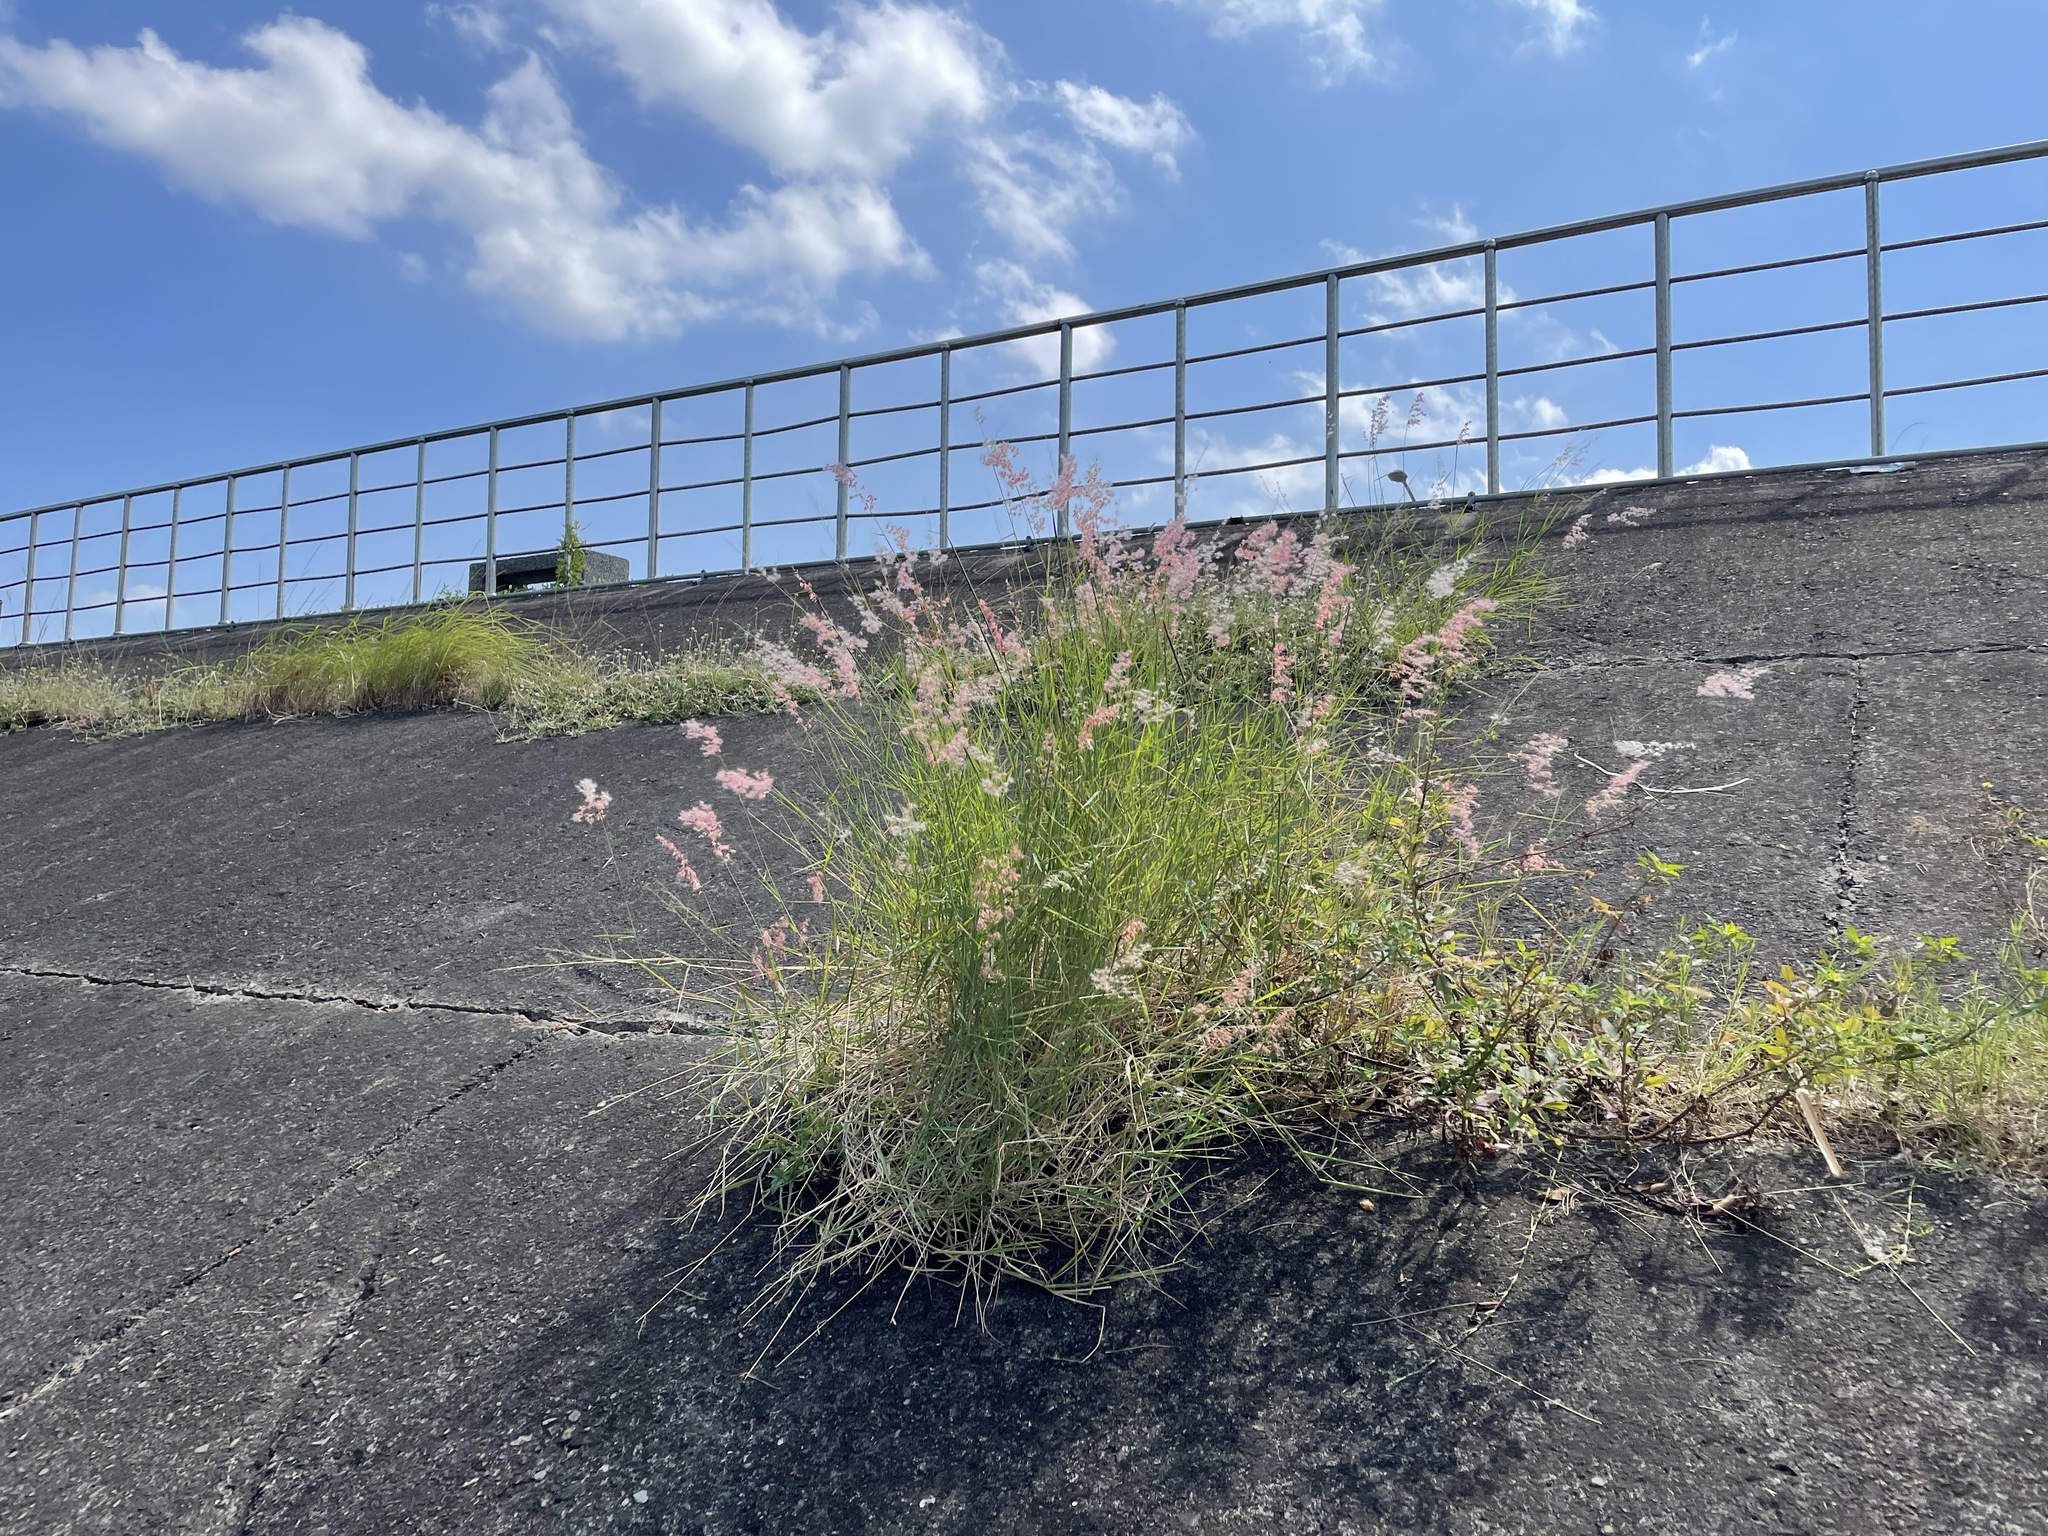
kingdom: Plantae
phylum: Tracheophyta
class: Liliopsida
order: Poales
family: Poaceae
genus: Melinis
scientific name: Melinis repens
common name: Rose natal grass
